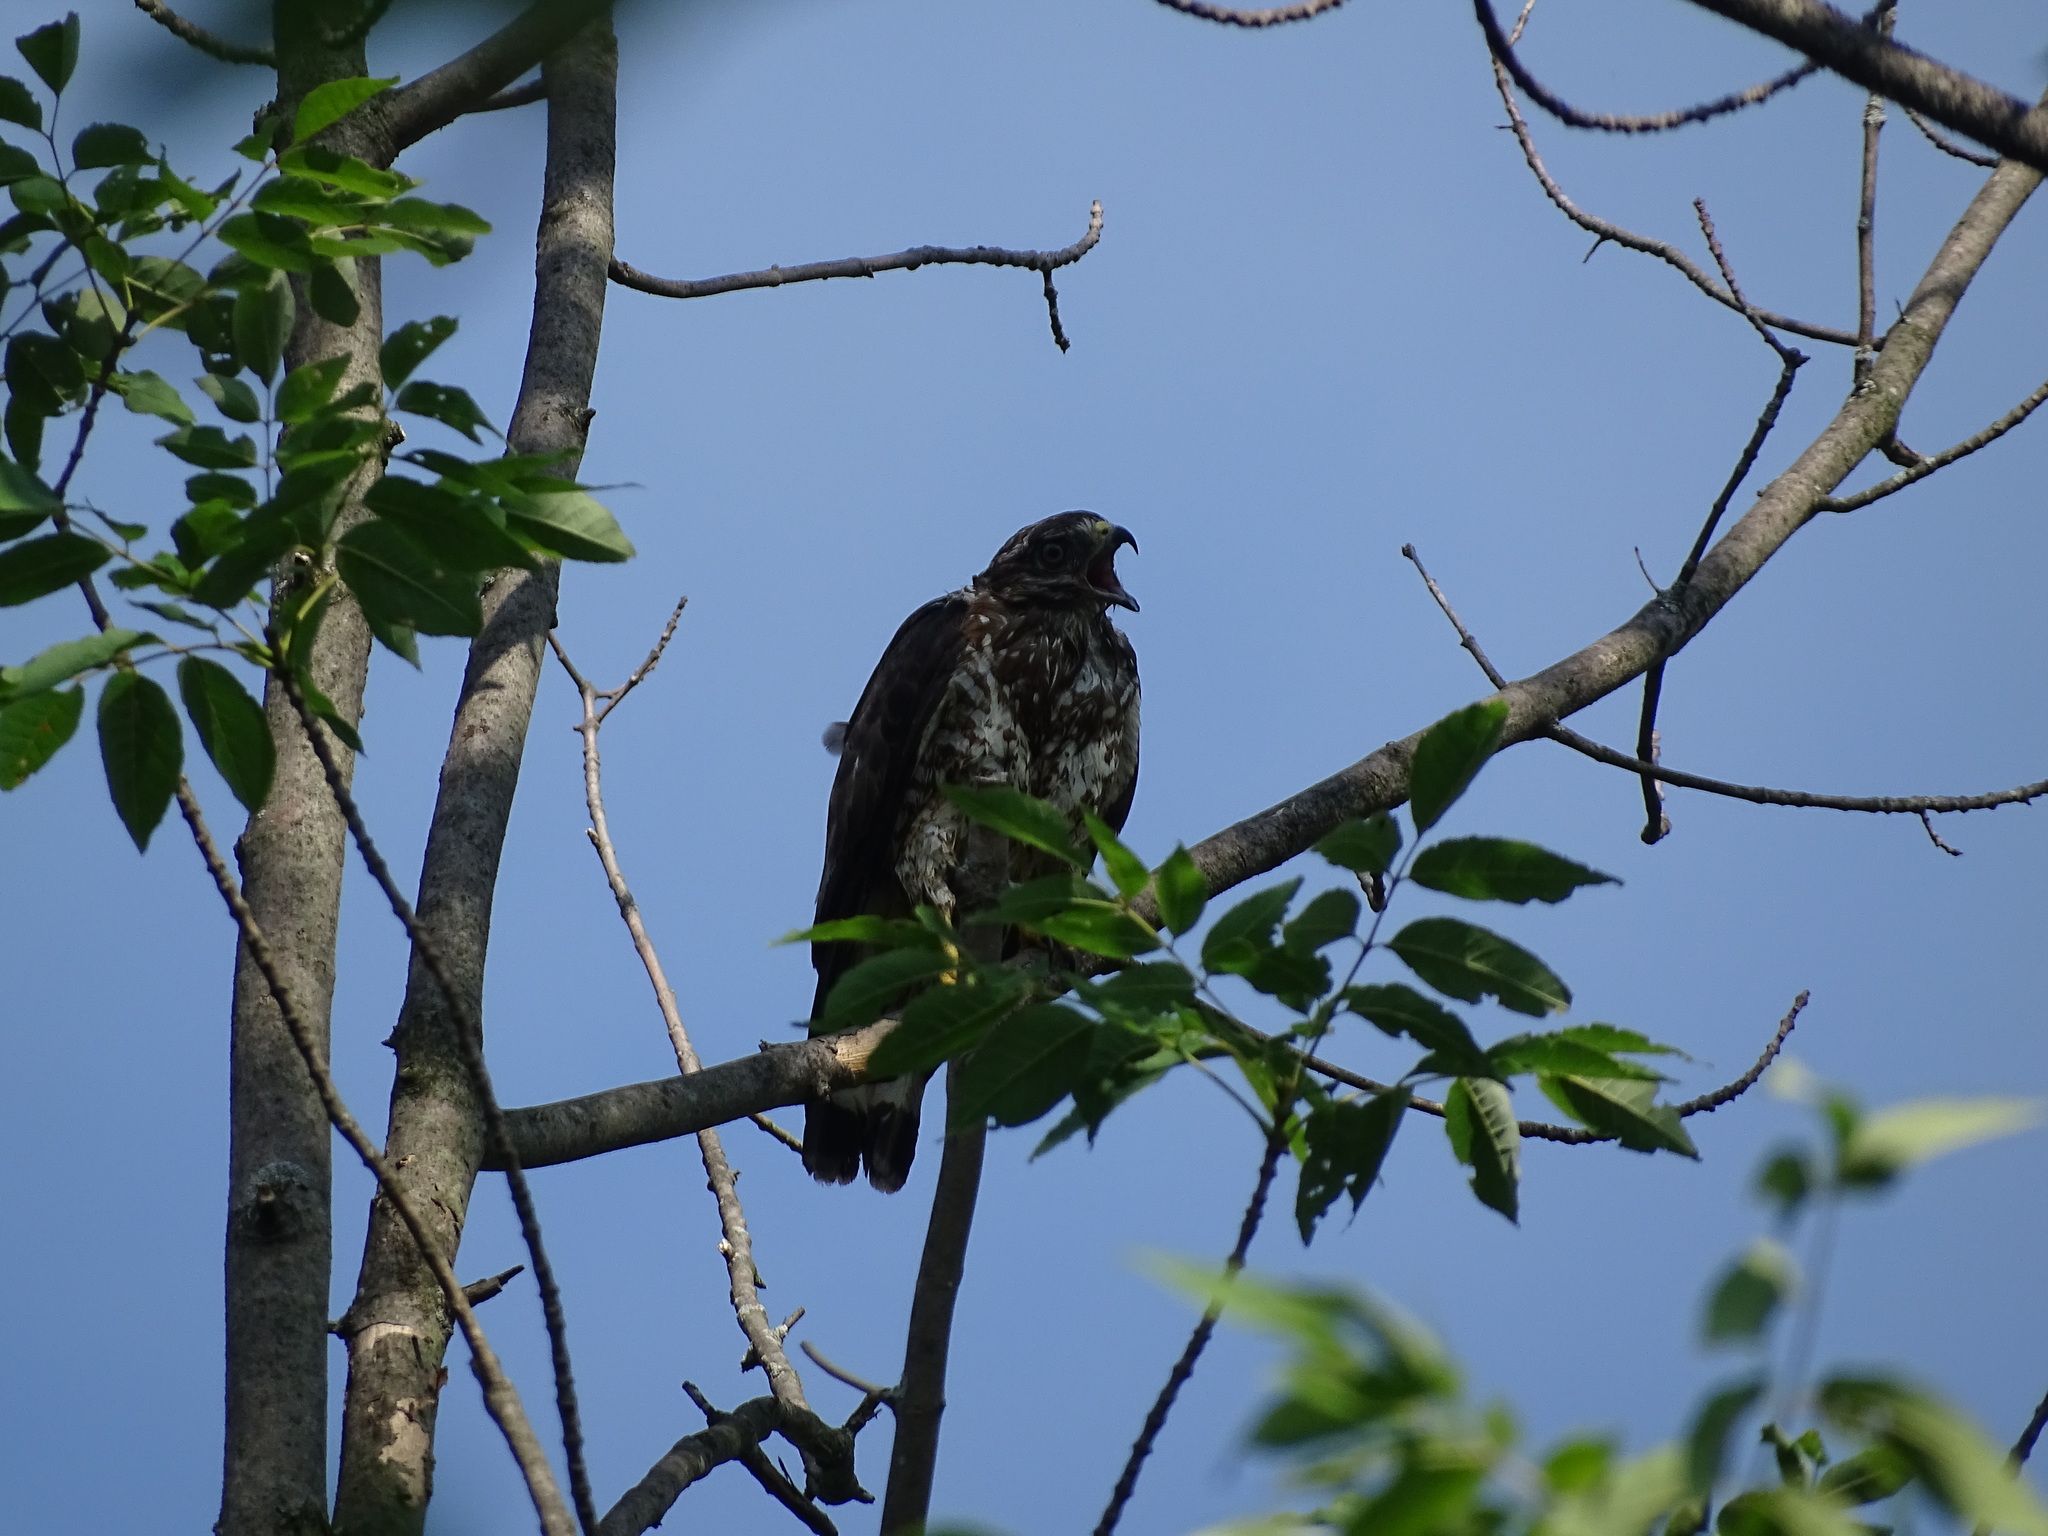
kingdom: Animalia
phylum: Chordata
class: Aves
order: Accipitriformes
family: Accipitridae
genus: Buteo
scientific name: Buteo platypterus
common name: Broad-winged hawk
